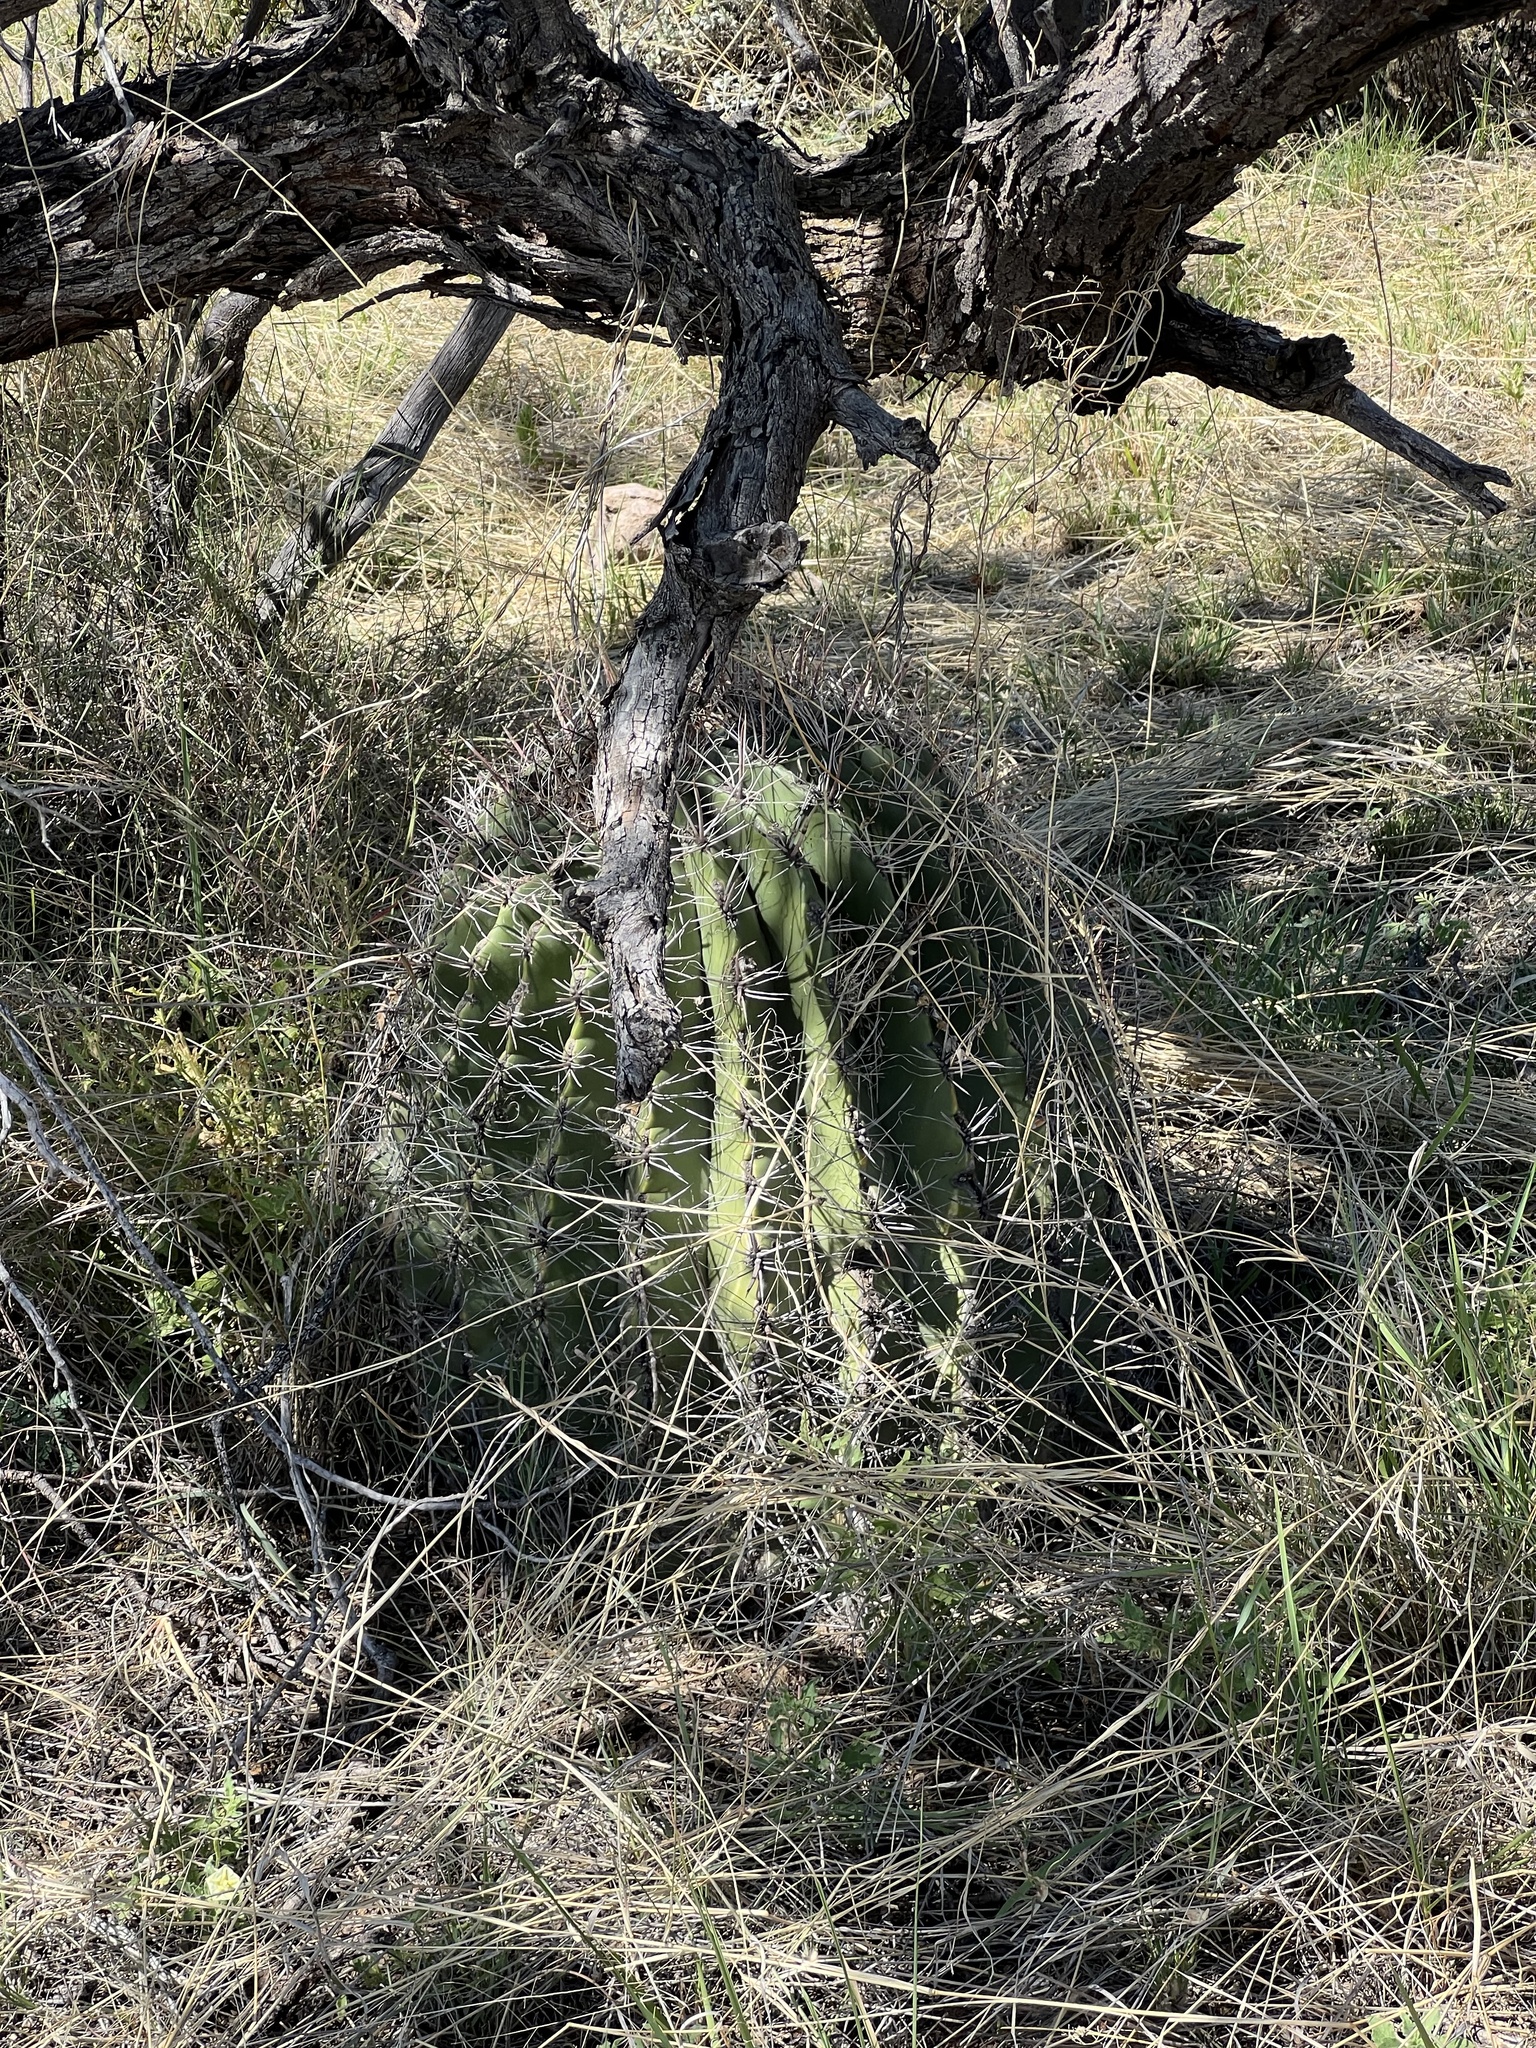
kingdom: Plantae
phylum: Tracheophyta
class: Magnoliopsida
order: Caryophyllales
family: Cactaceae
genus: Ferocactus
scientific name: Ferocactus wislizeni
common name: Candy barrel cactus
